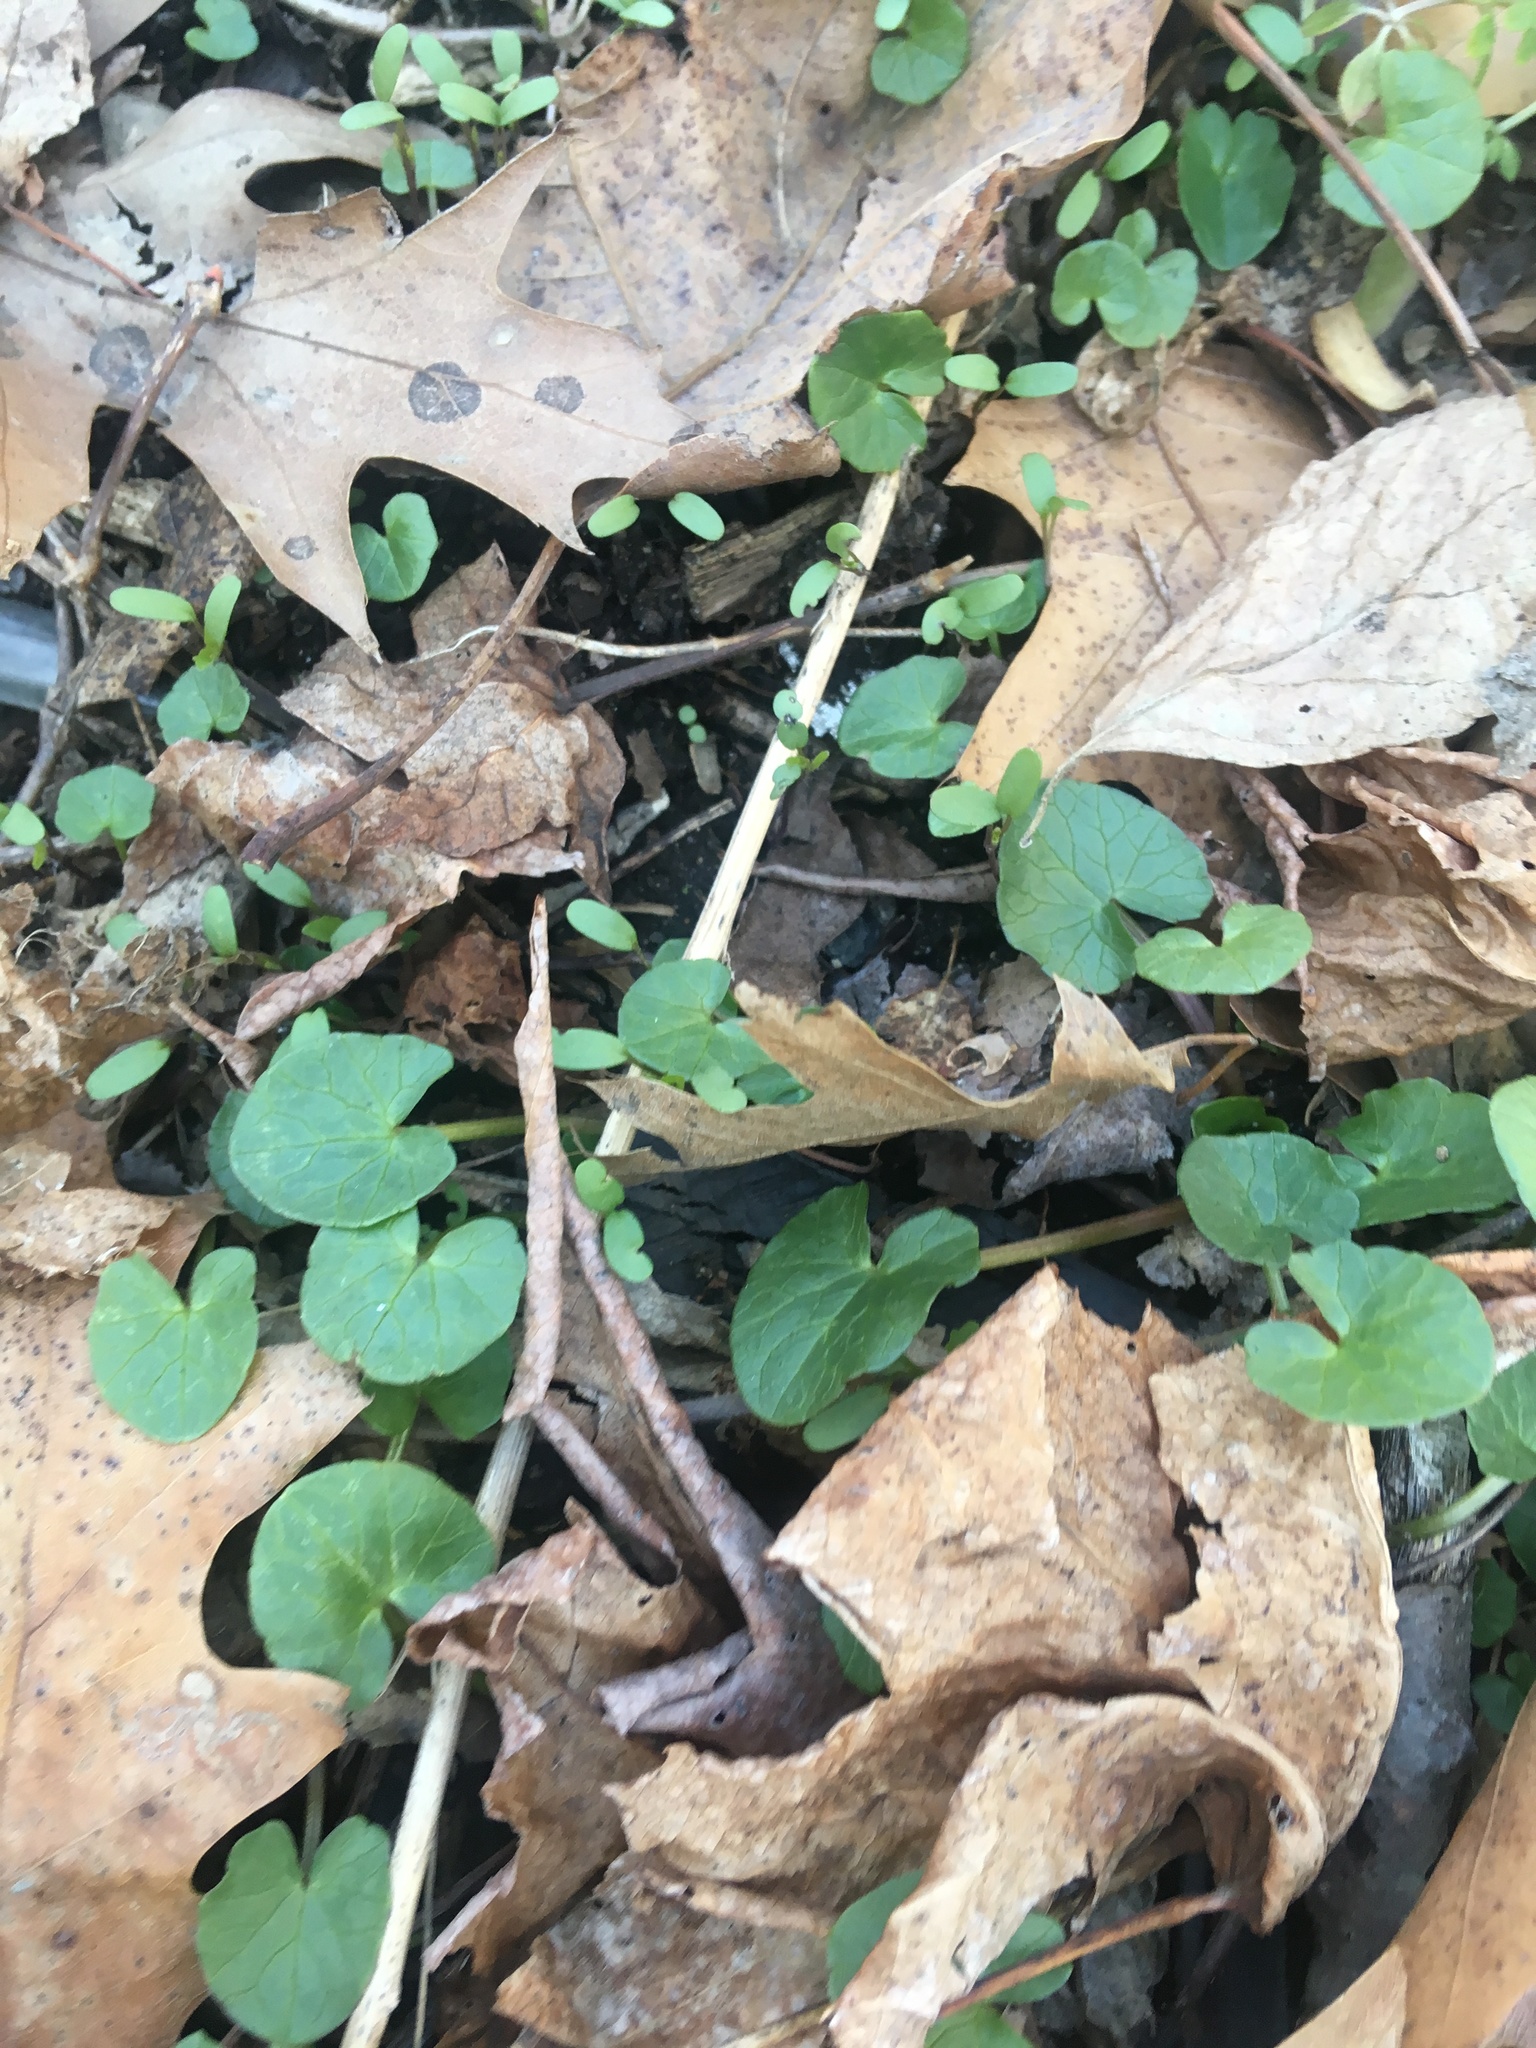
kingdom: Plantae
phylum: Tracheophyta
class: Magnoliopsida
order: Ranunculales
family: Ranunculaceae
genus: Ficaria
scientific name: Ficaria verna
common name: Lesser celandine
